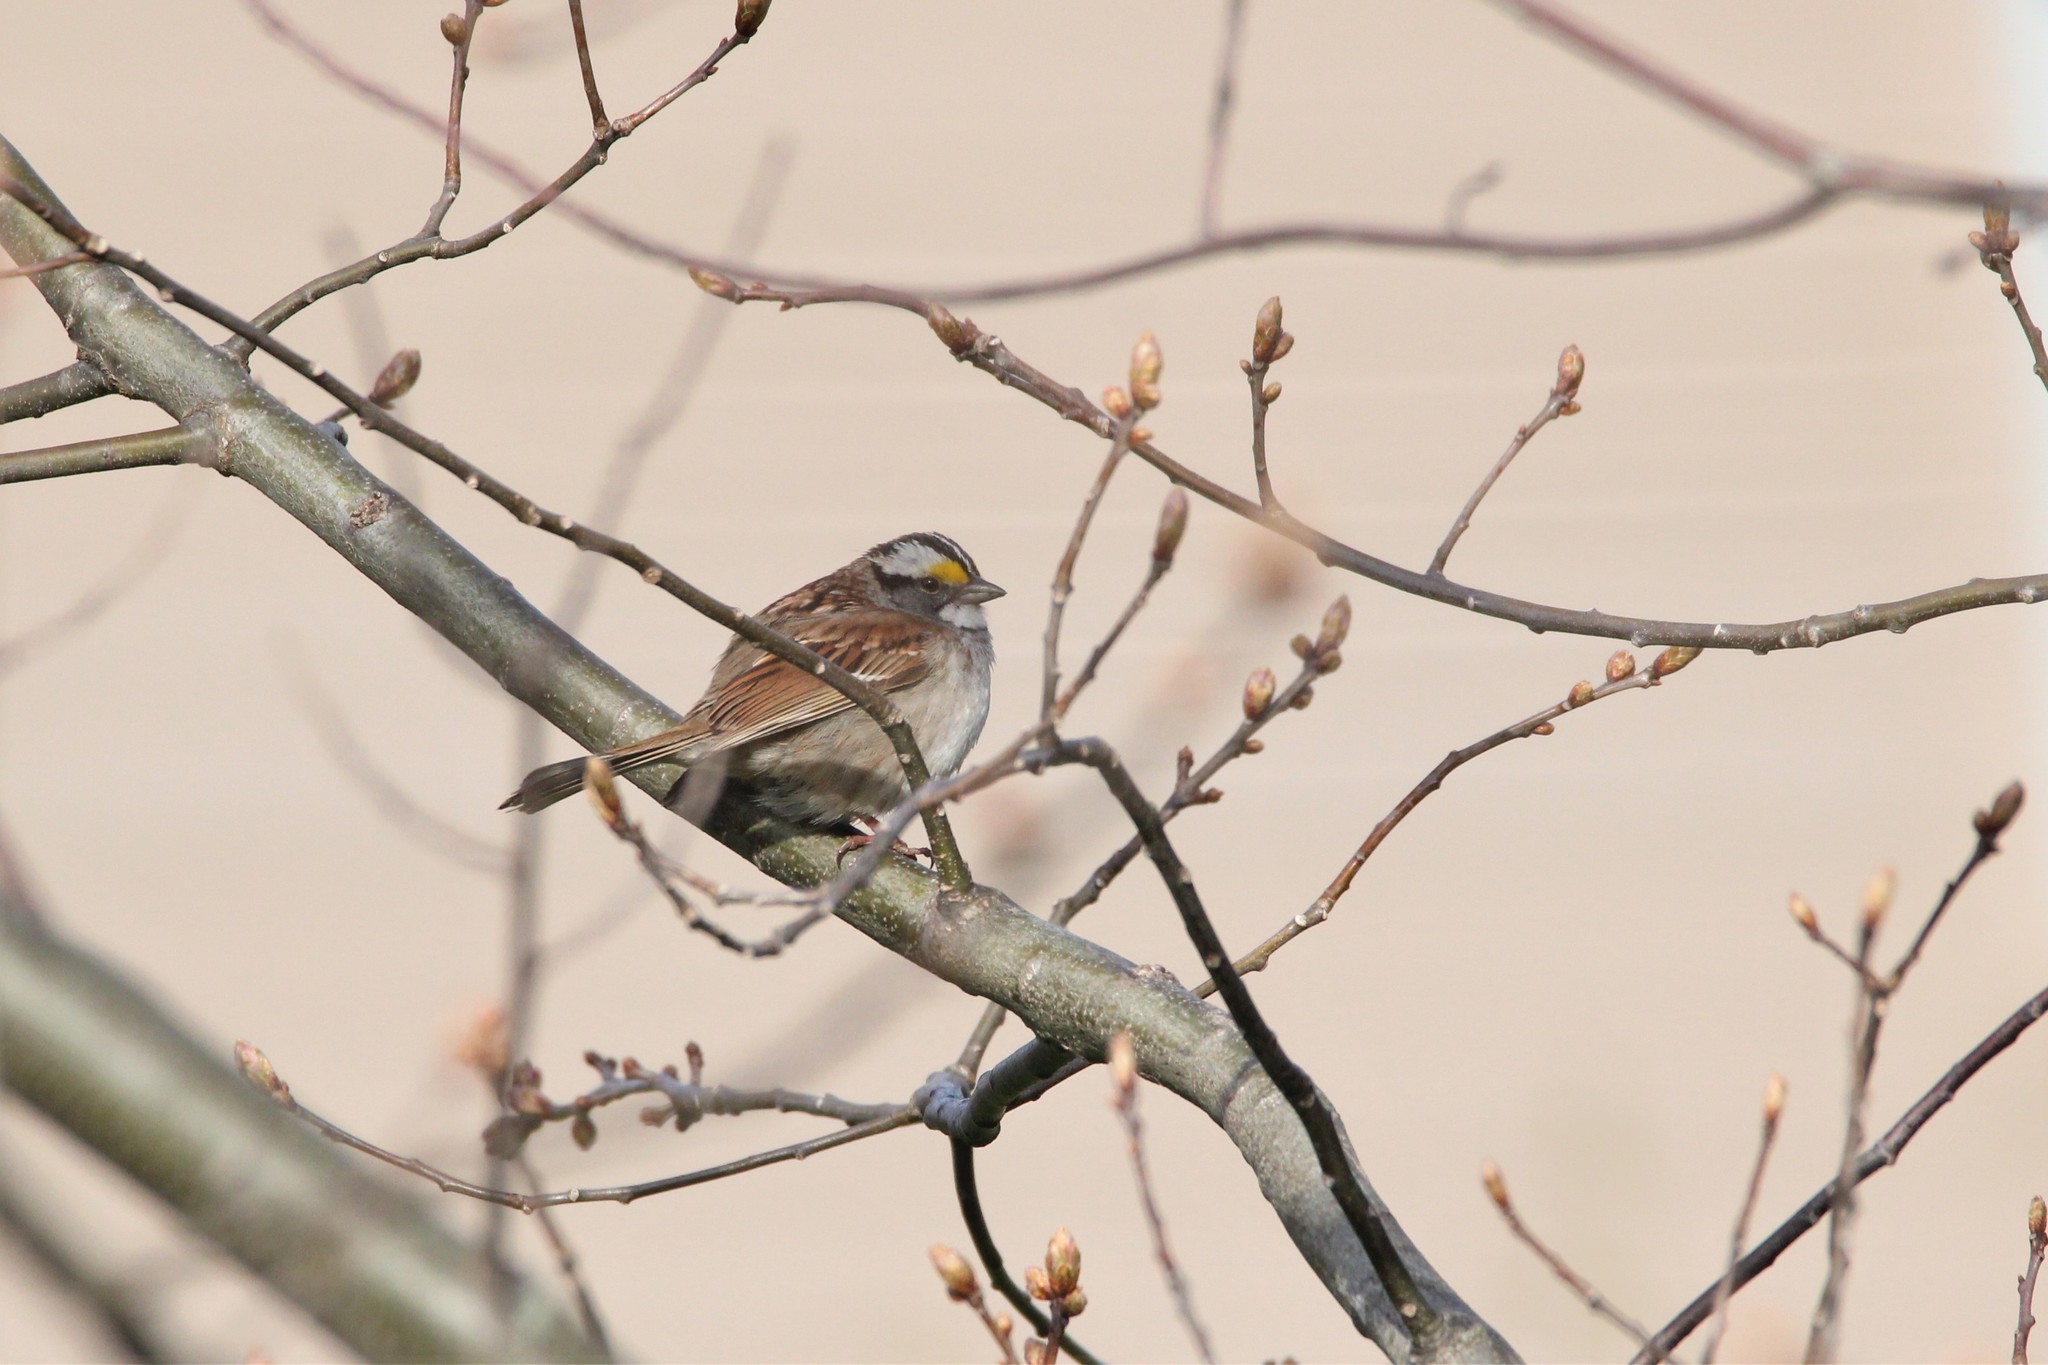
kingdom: Animalia
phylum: Chordata
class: Aves
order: Passeriformes
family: Passerellidae
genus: Zonotrichia
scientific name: Zonotrichia albicollis
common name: White-throated sparrow
